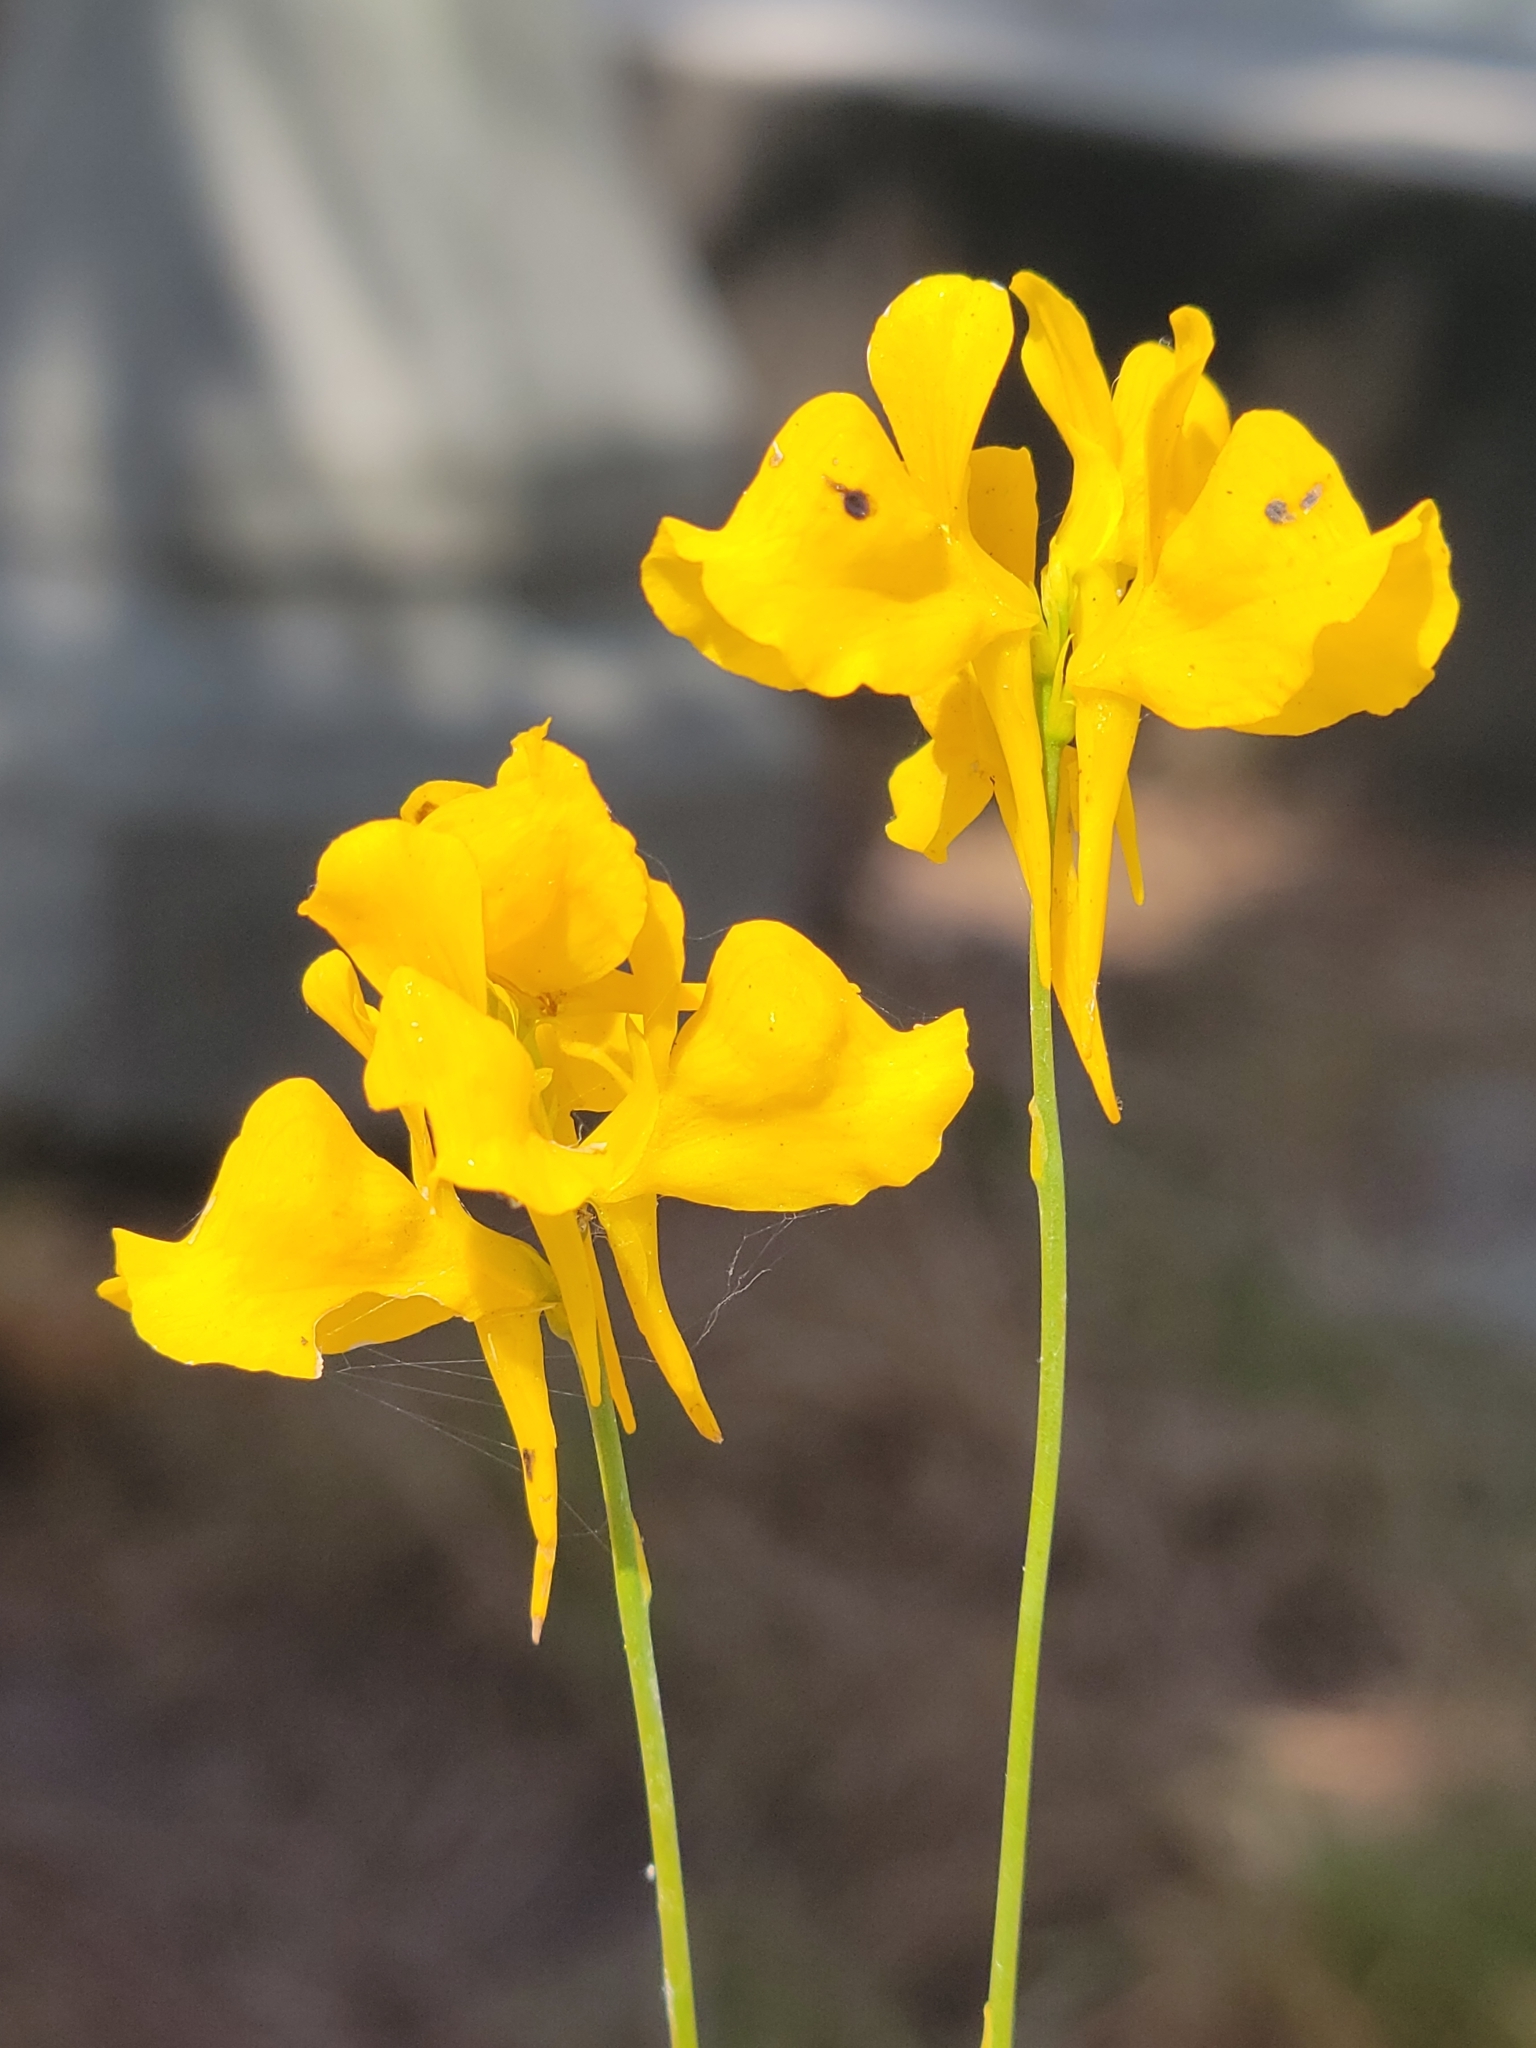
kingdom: Plantae
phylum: Tracheophyta
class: Magnoliopsida
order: Lamiales
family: Lentibulariaceae
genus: Utricularia
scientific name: Utricularia cornuta
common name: Horned bladderwort
